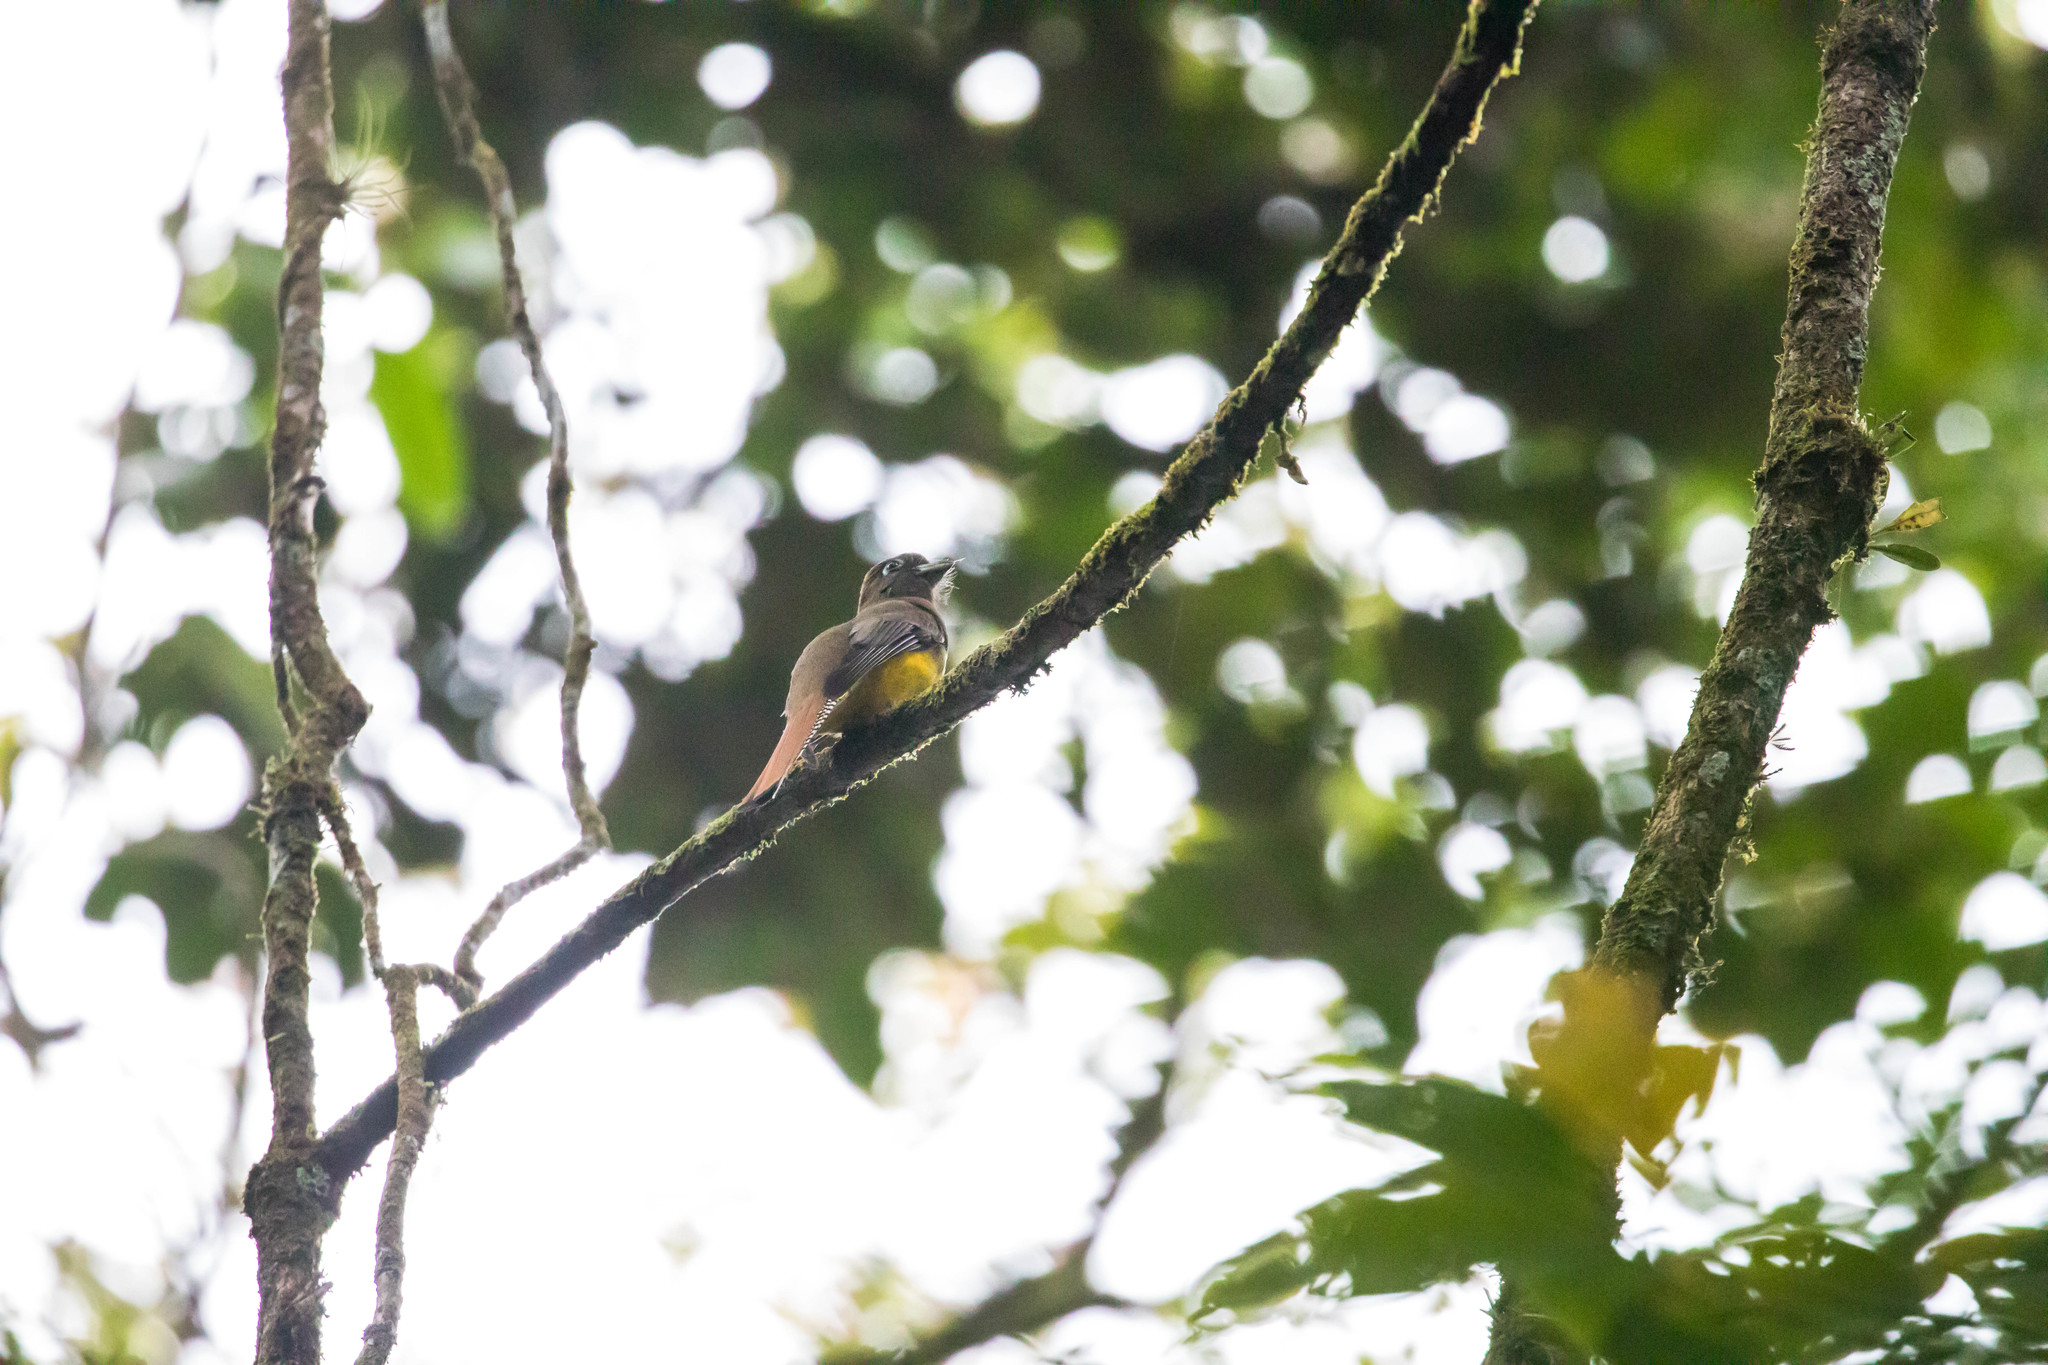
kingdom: Animalia
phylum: Chordata
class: Aves
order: Trogoniformes
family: Trogonidae
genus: Trogon
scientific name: Trogon rufus
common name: Black-throated trogon
